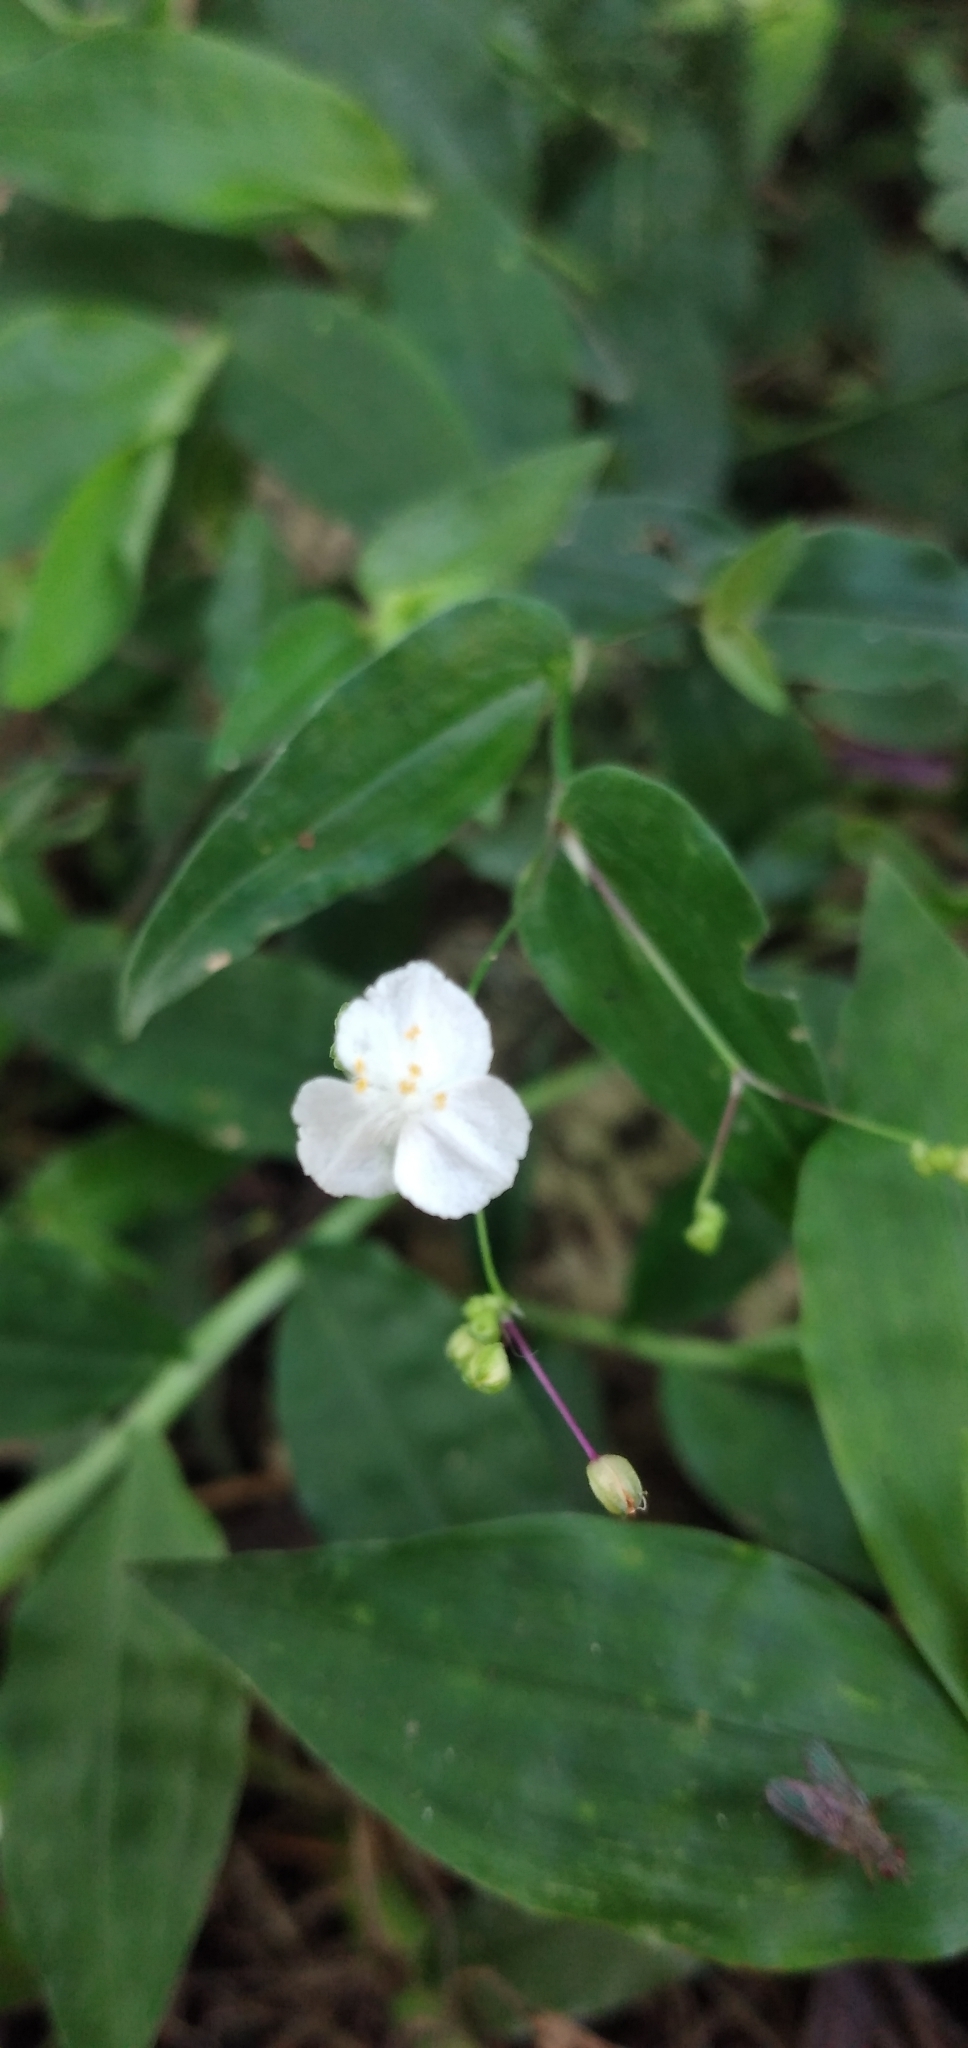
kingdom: Plantae
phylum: Tracheophyta
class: Liliopsida
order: Commelinales
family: Commelinaceae
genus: Gibasis
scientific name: Gibasis geniculata
